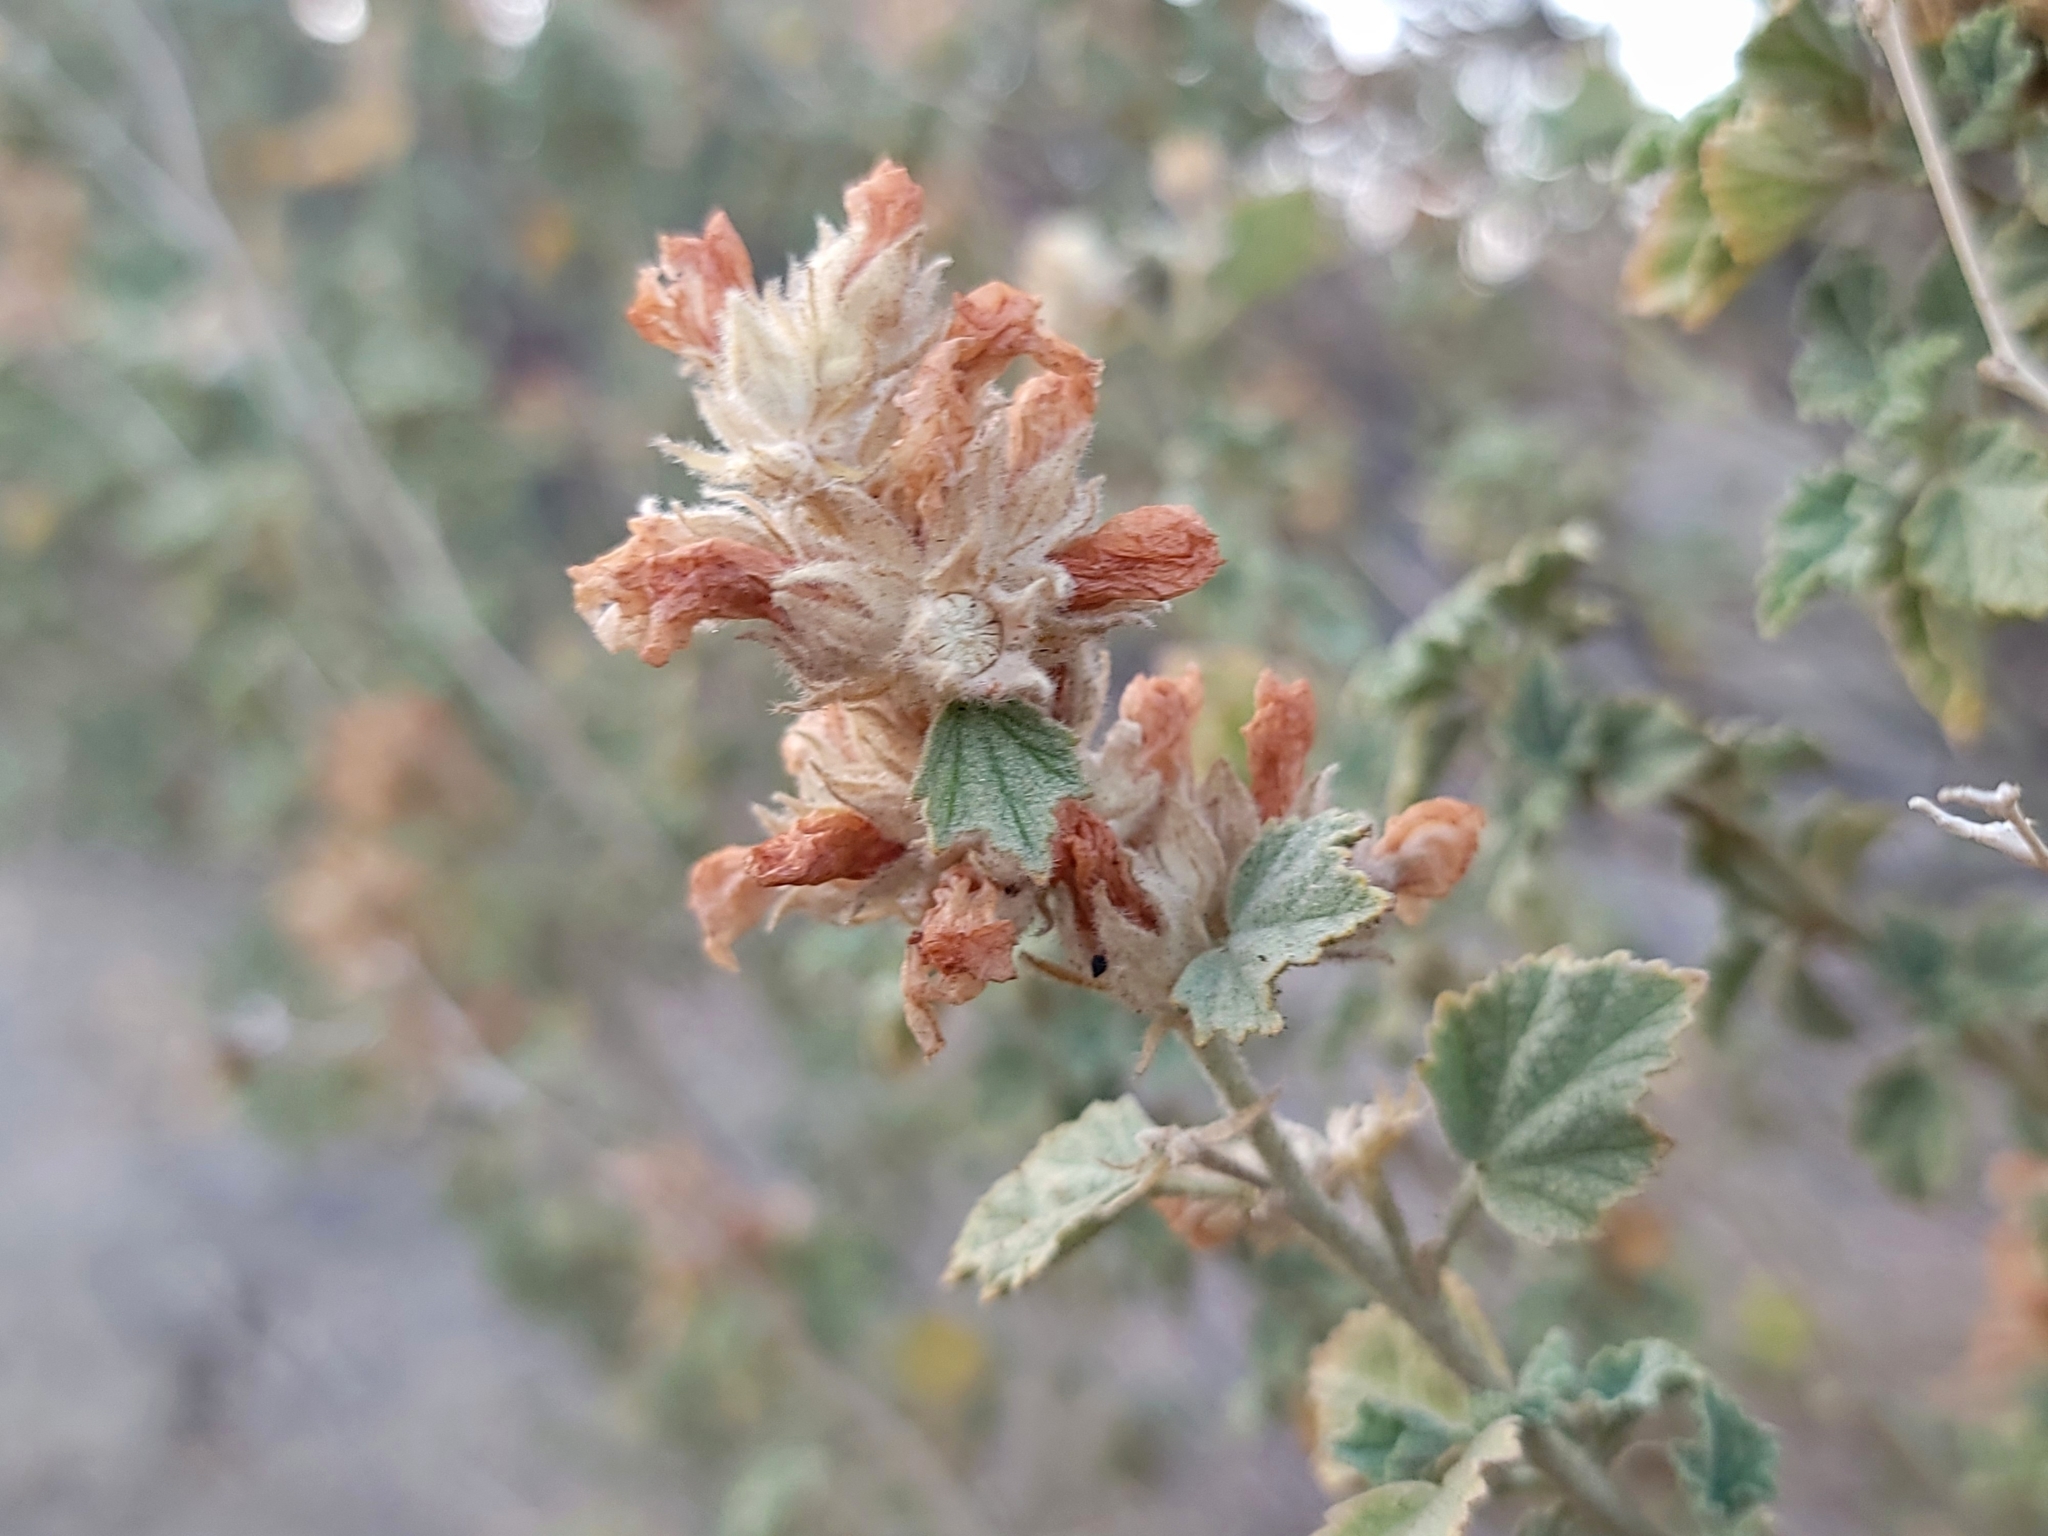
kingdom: Plantae
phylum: Tracheophyta
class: Magnoliopsida
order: Malvales
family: Malvaceae
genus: Malacothamnus
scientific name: Malacothamnus marrubioides
